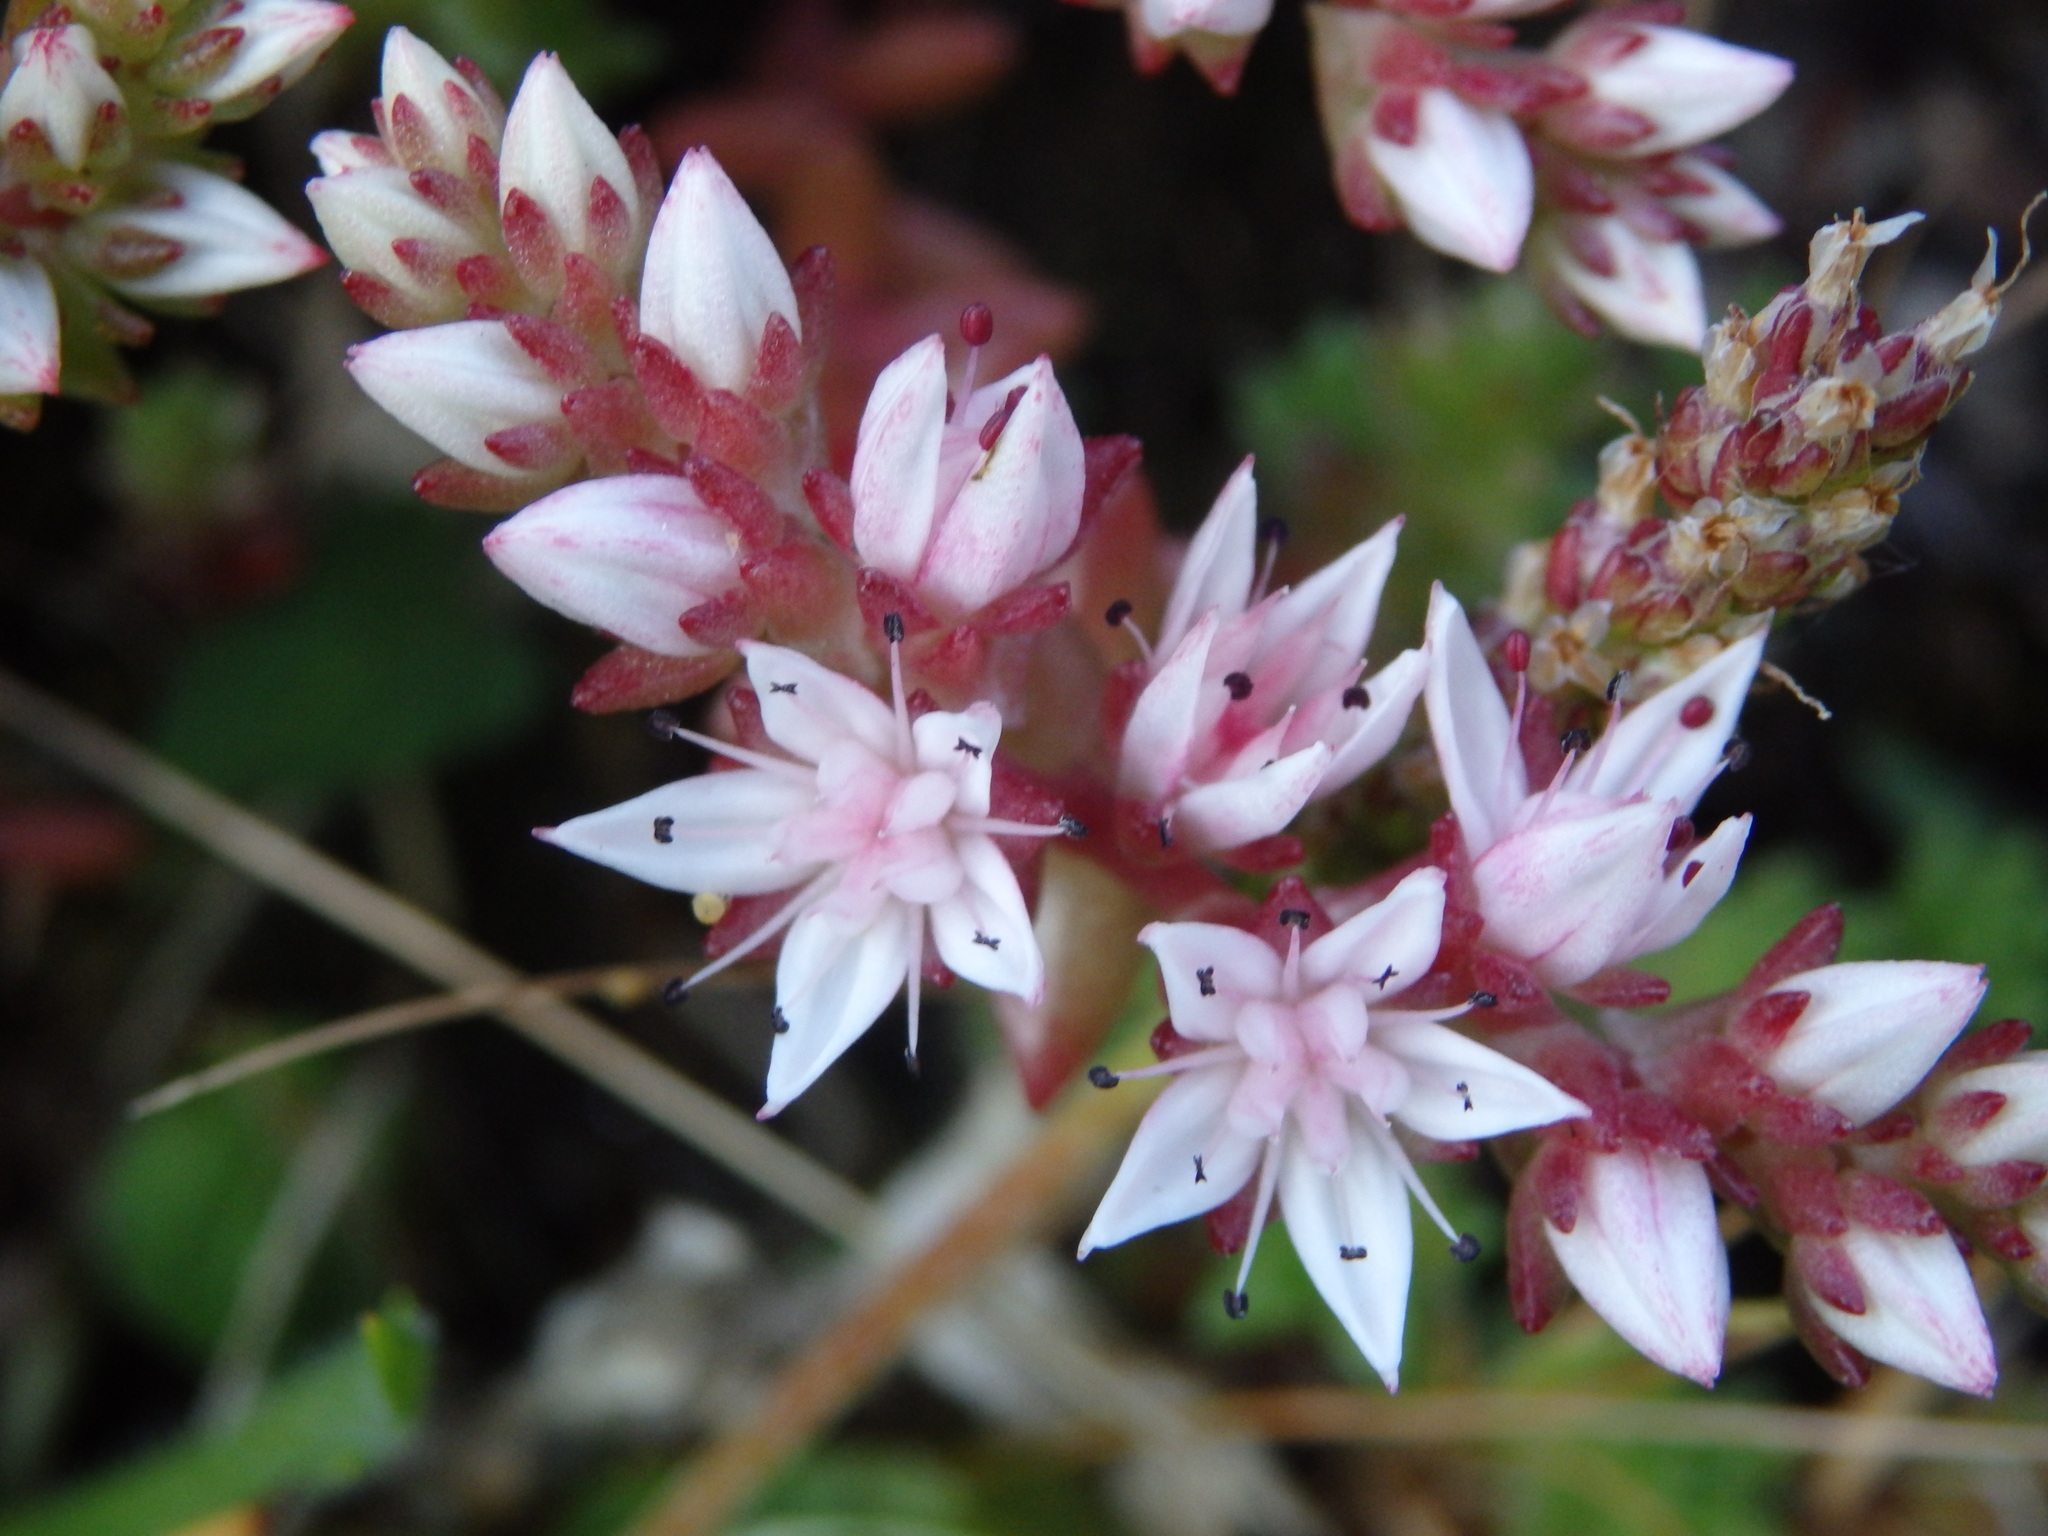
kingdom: Plantae
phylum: Tracheophyta
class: Magnoliopsida
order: Saxifragales
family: Crassulaceae
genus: Sedum
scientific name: Sedum anglicum
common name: English stonecrop
